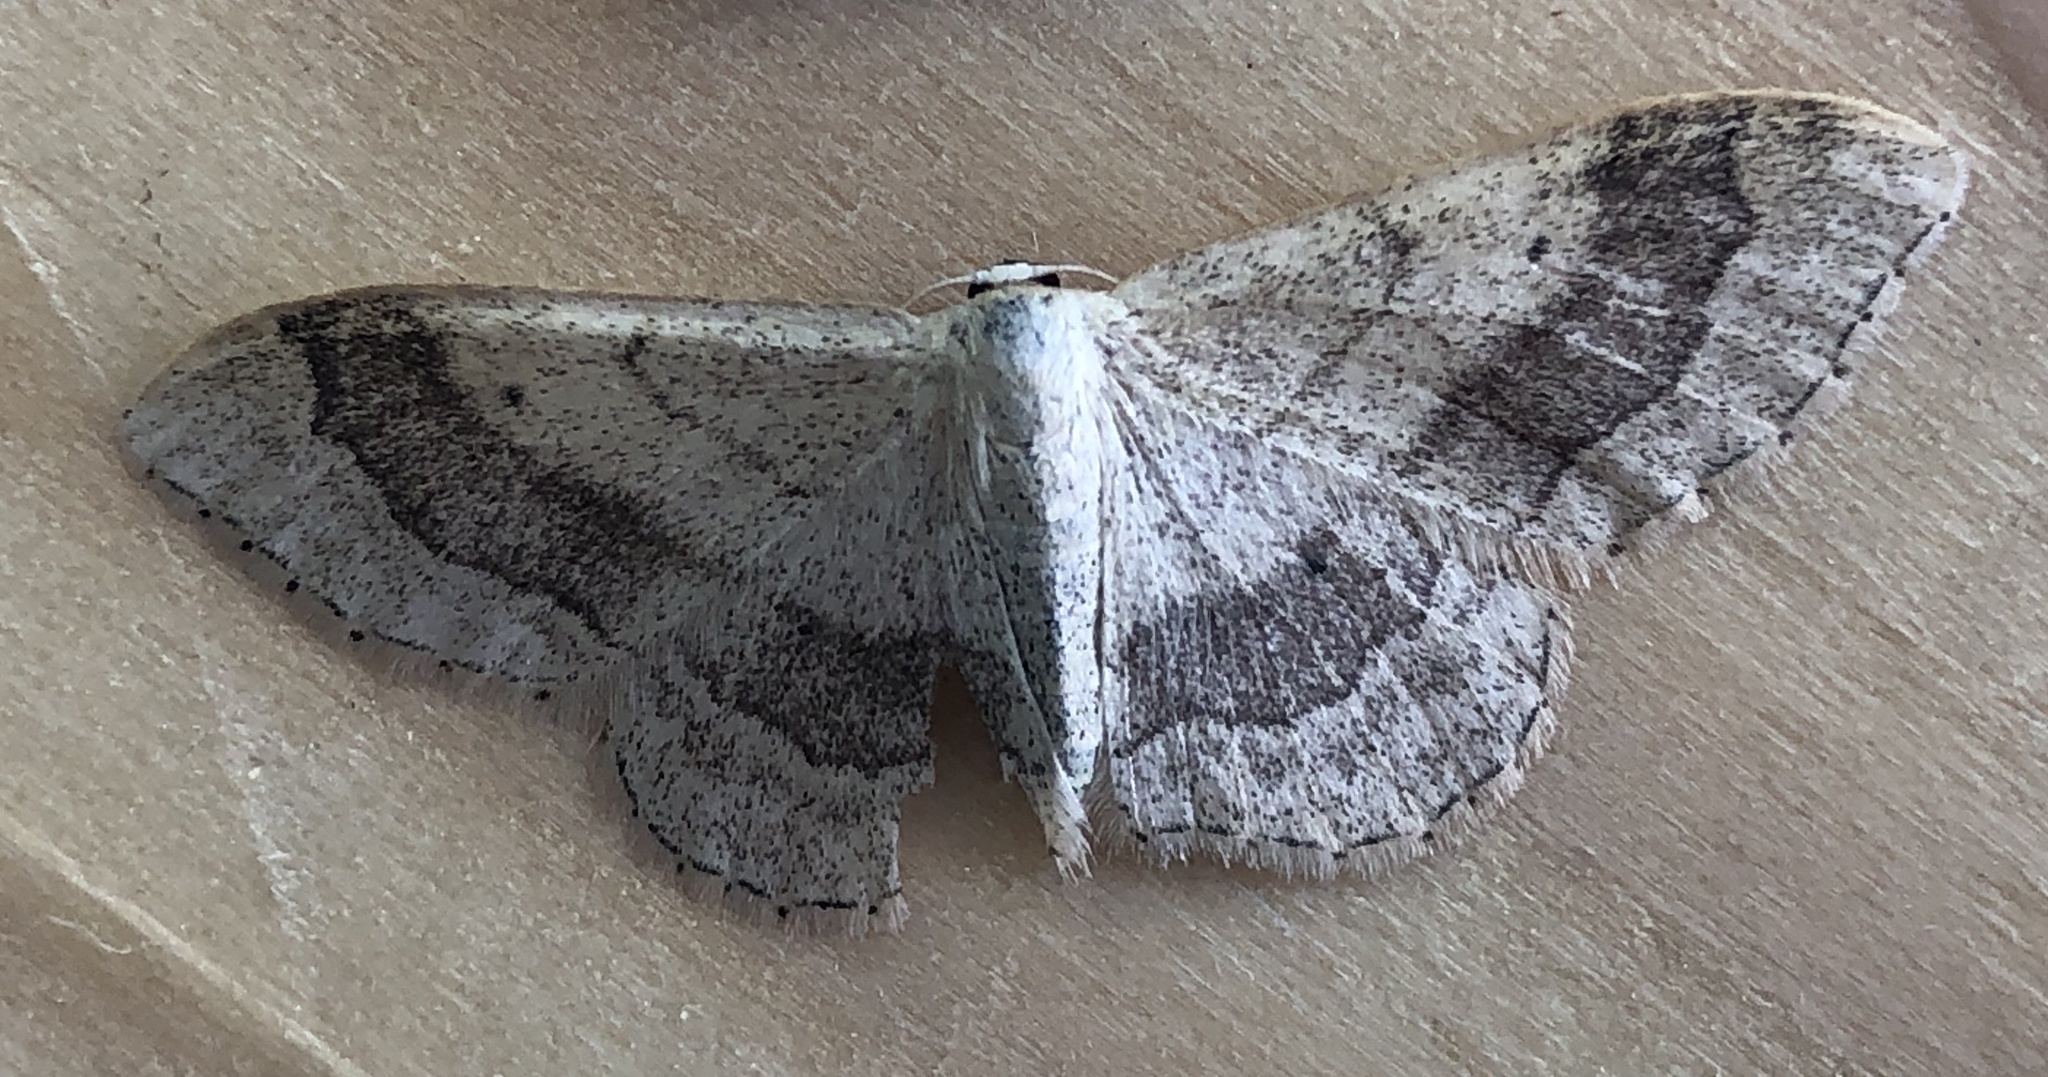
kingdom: Animalia
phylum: Arthropoda
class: Insecta
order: Lepidoptera
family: Geometridae
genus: Idaea
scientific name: Idaea aversata
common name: Riband wave
